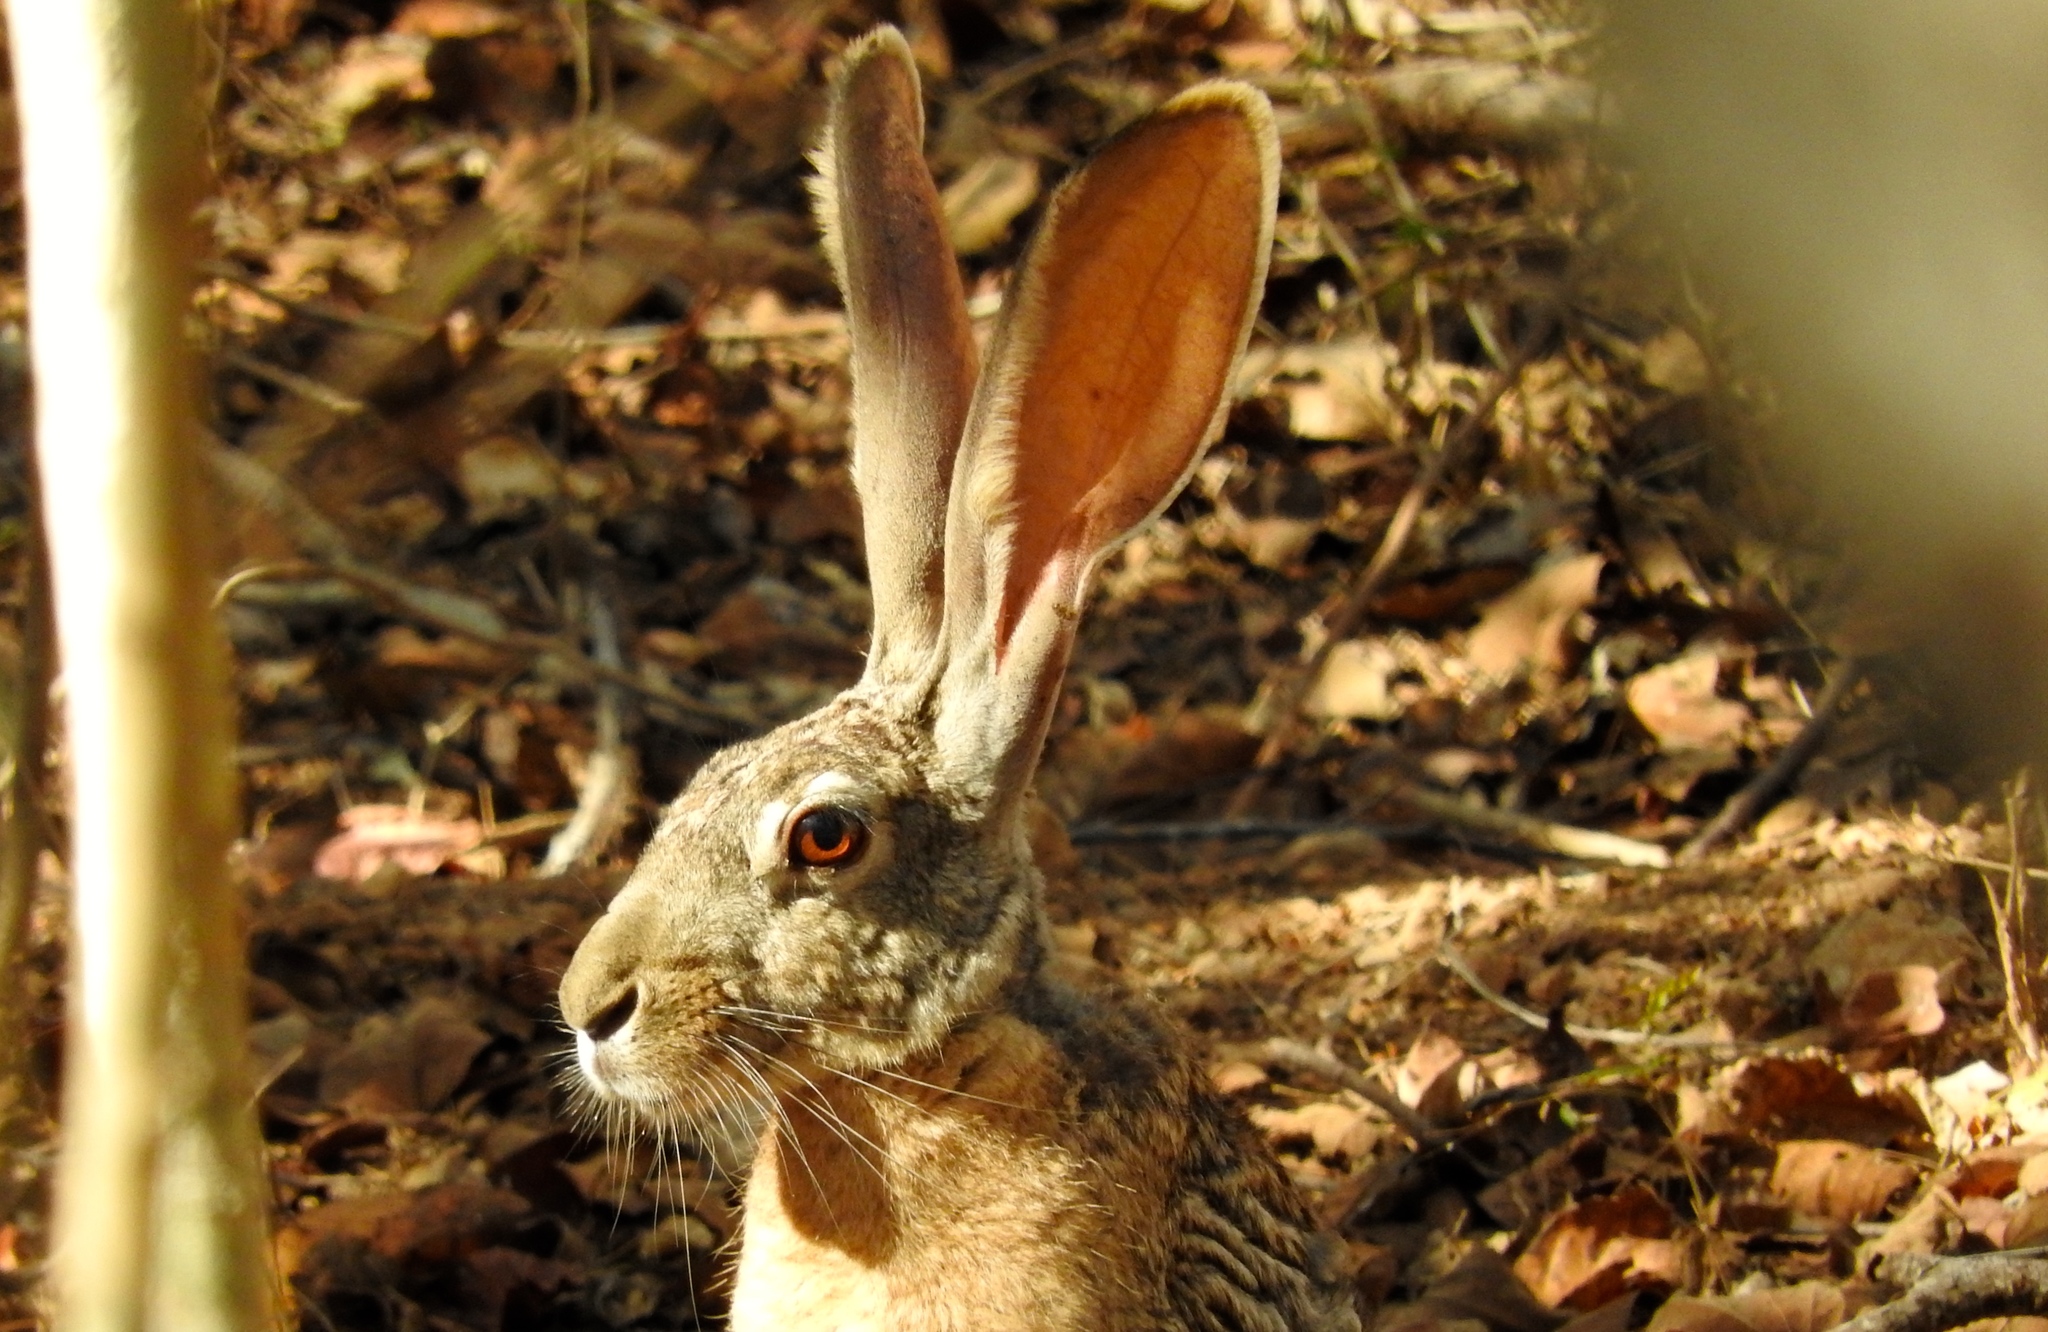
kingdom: Animalia
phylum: Chordata
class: Mammalia
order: Lagomorpha
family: Leporidae
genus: Lepus
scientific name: Lepus alleni
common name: Antelope jackrabbit
